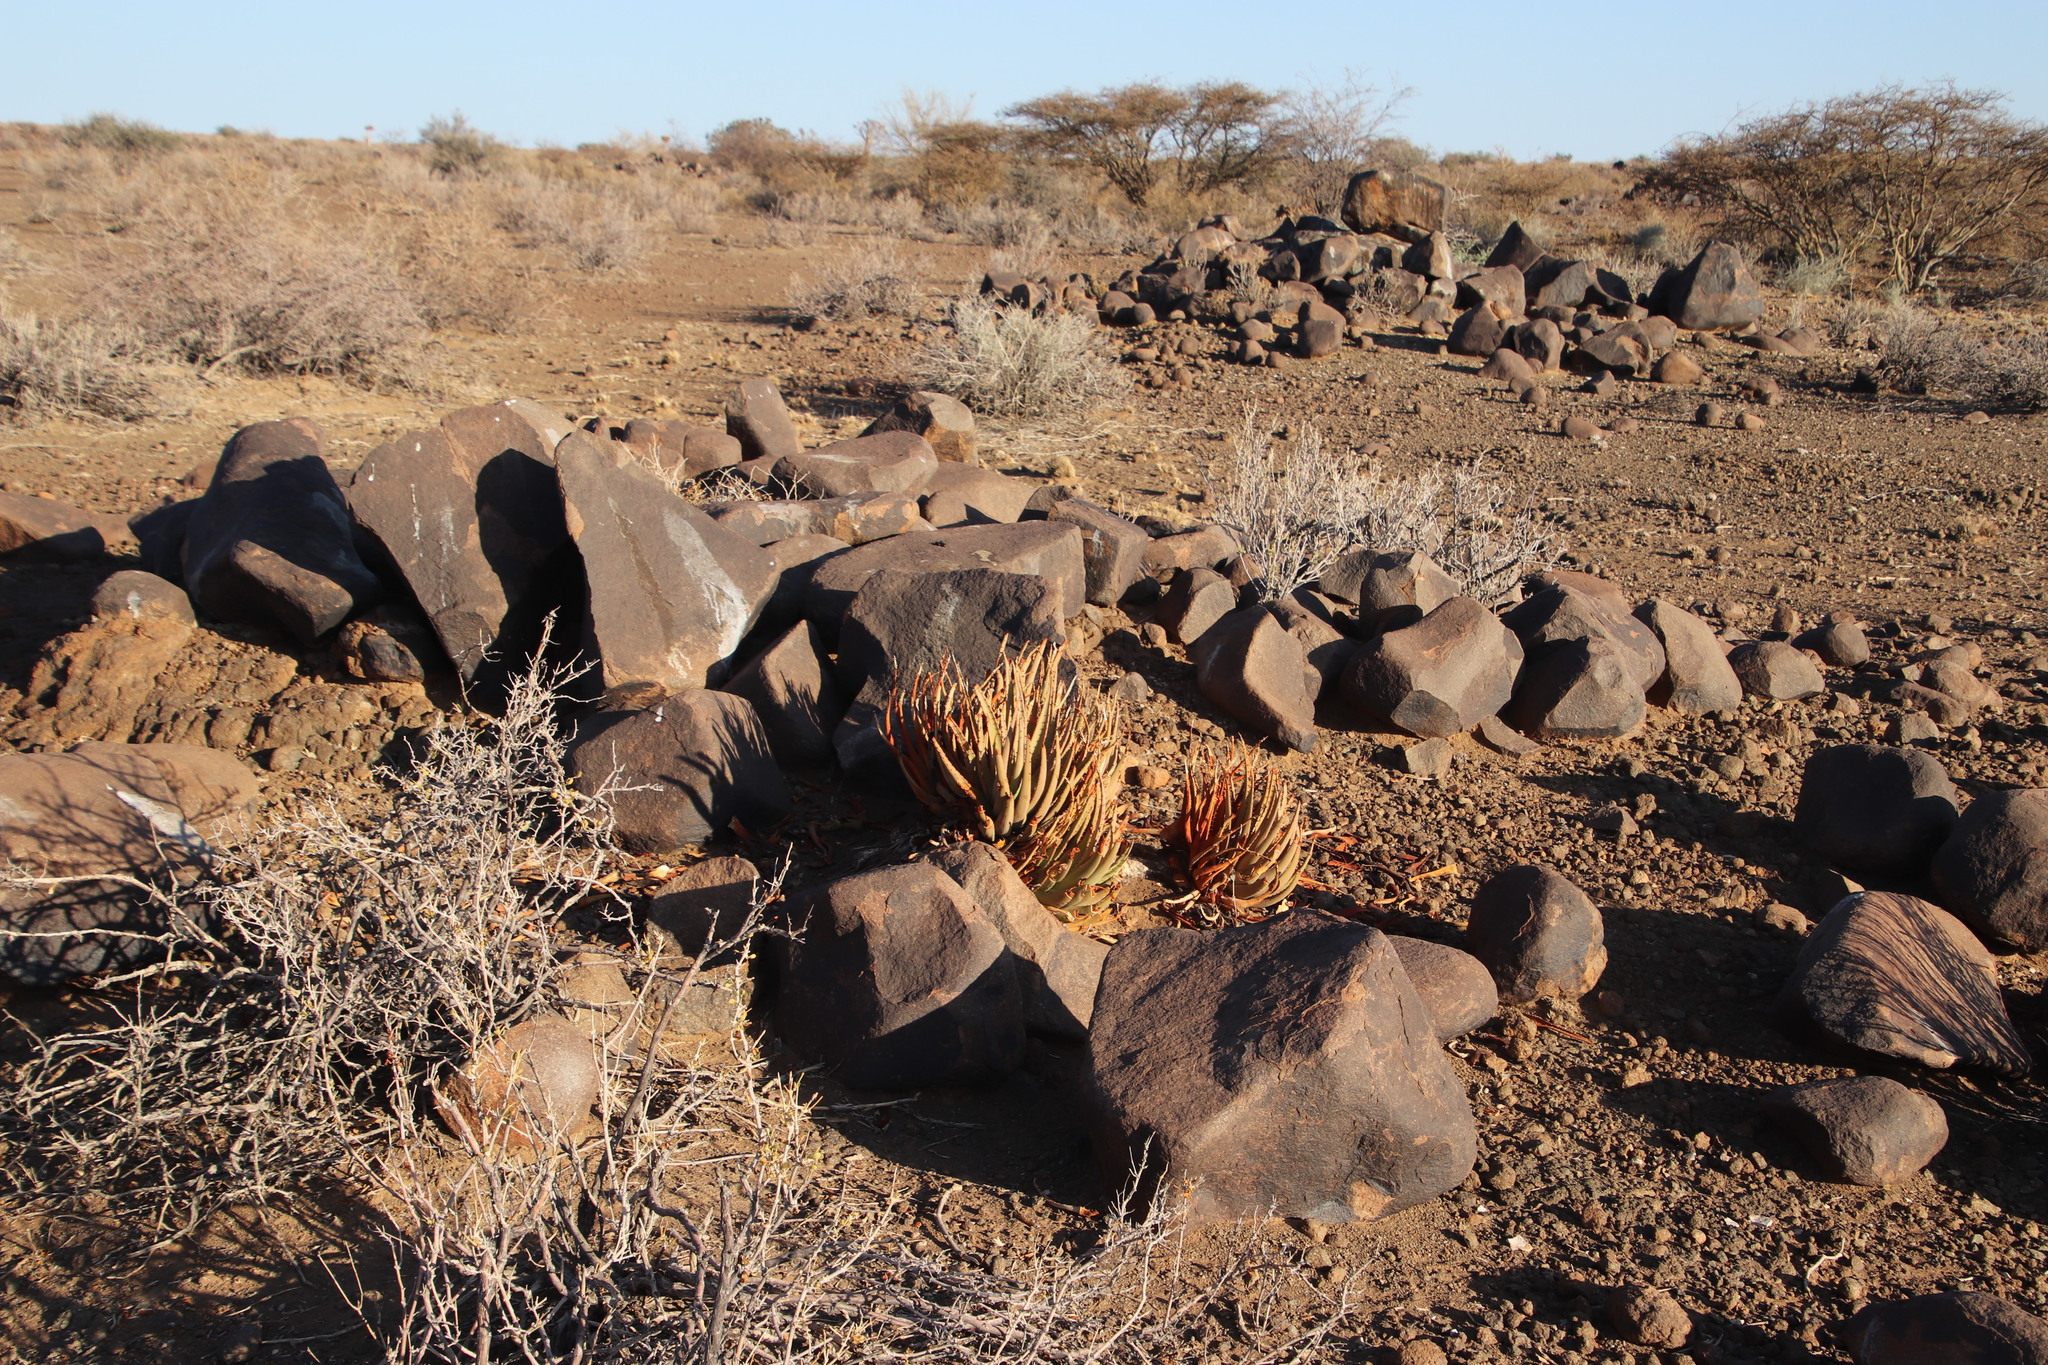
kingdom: Plantae
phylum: Tracheophyta
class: Liliopsida
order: Asparagales
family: Asphodelaceae
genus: Aloe
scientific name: Aloe argenticauda
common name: Silver-tailed aloe
